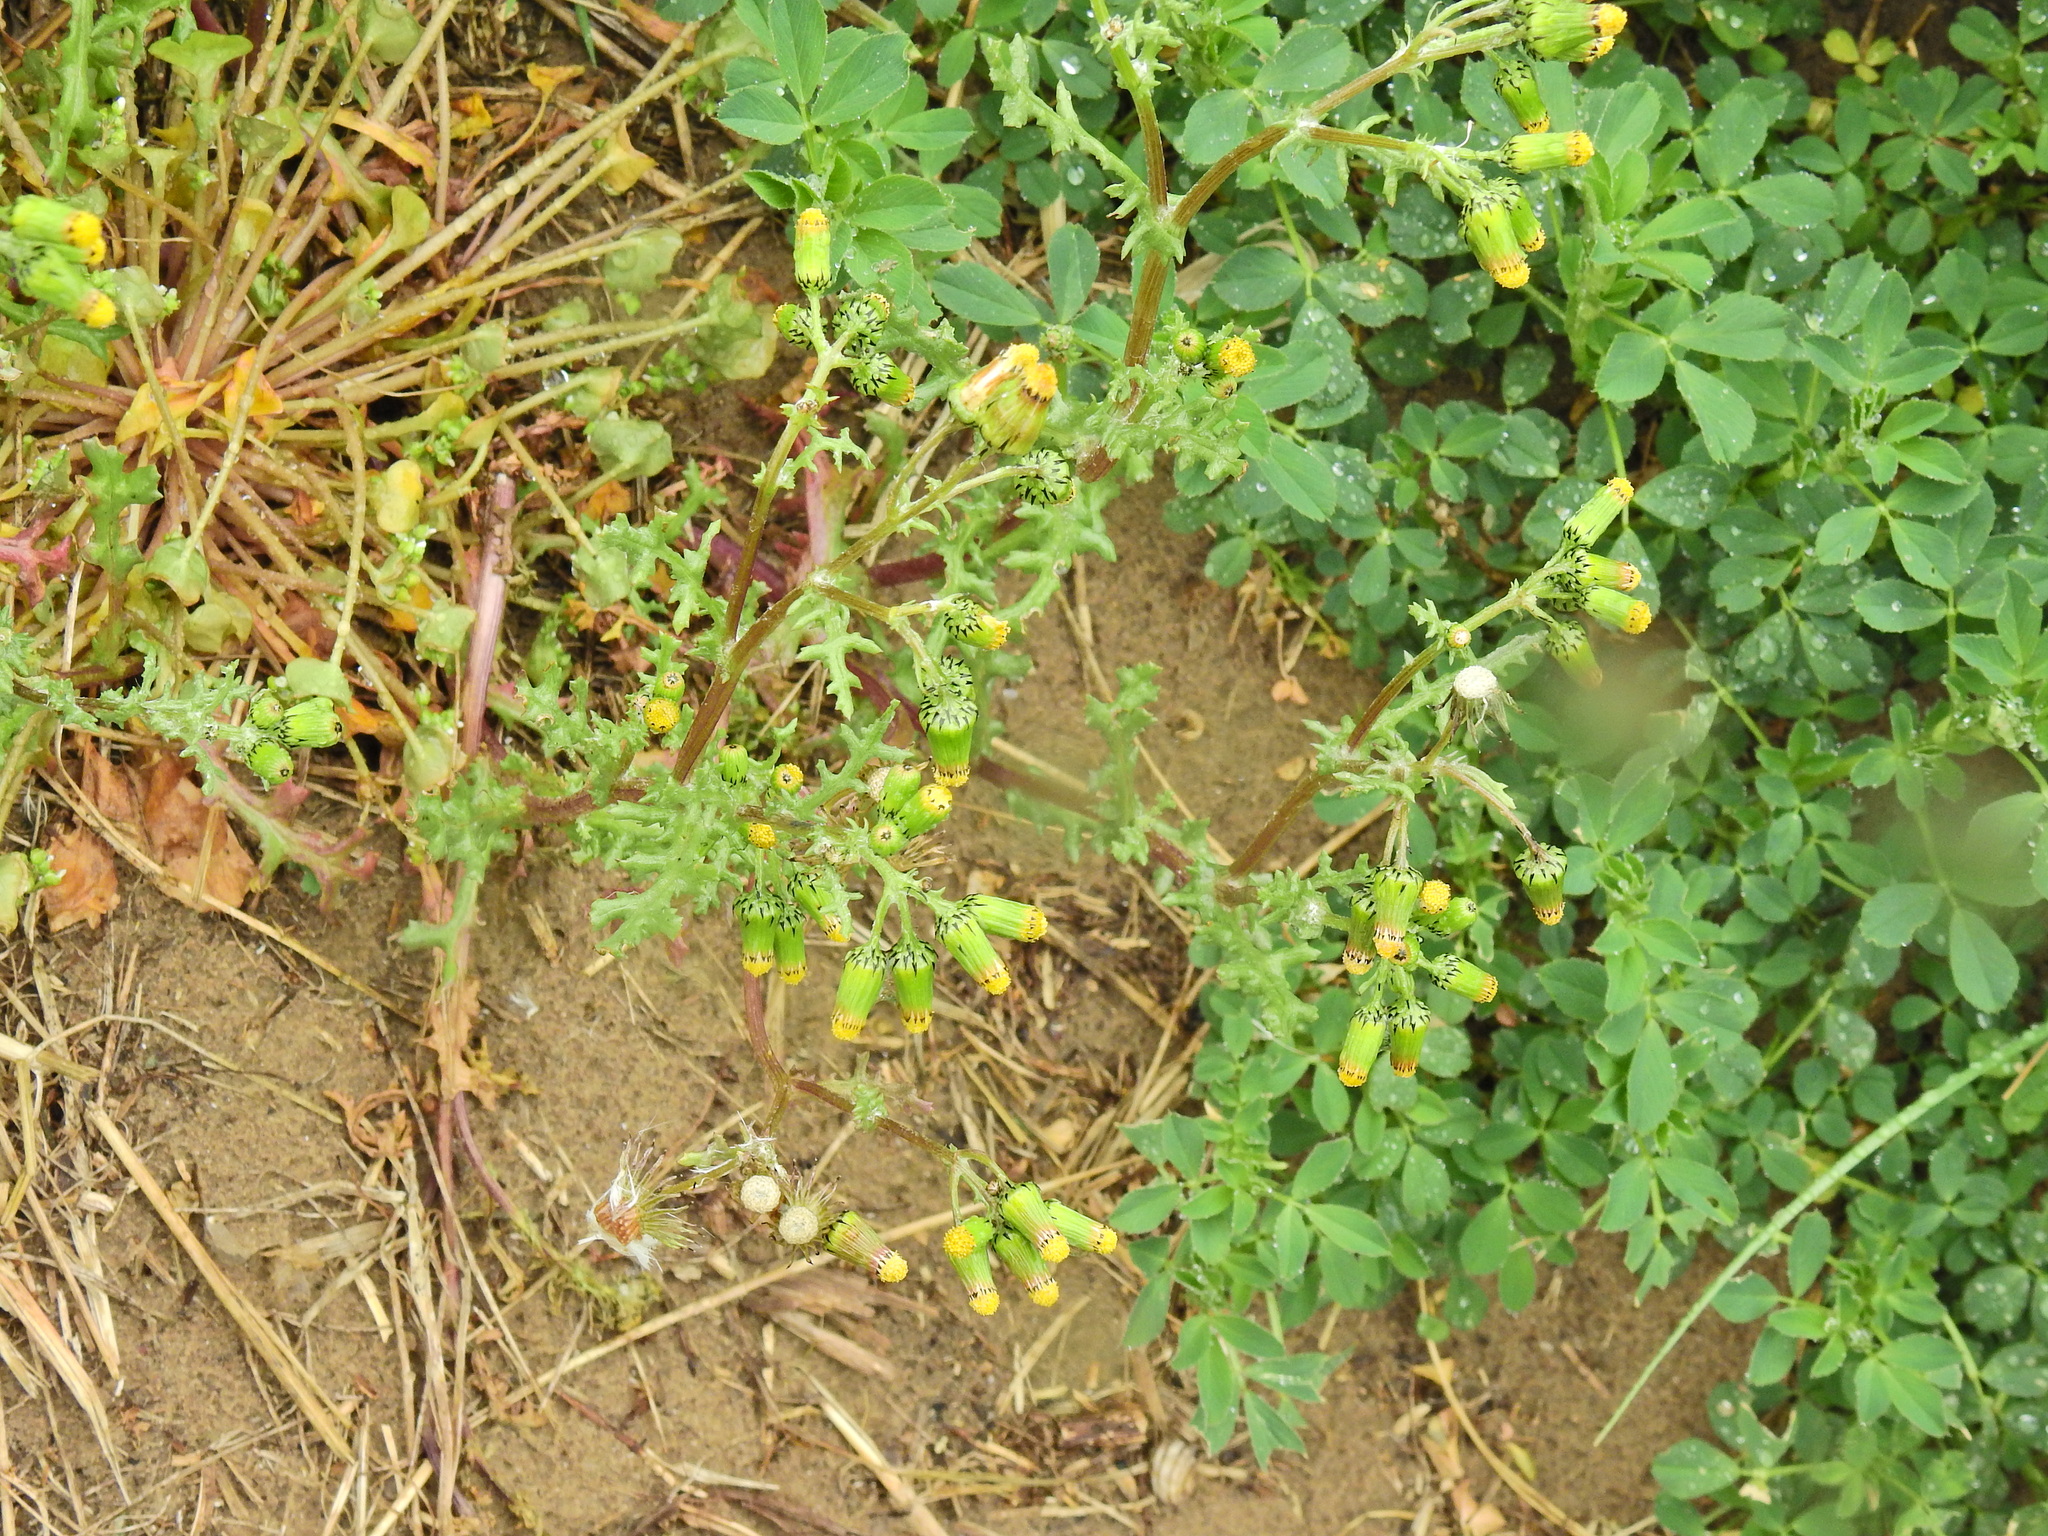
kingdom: Plantae
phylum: Tracheophyta
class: Magnoliopsida
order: Asterales
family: Asteraceae
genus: Senecio
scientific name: Senecio vulgaris
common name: Old-man-in-the-spring
